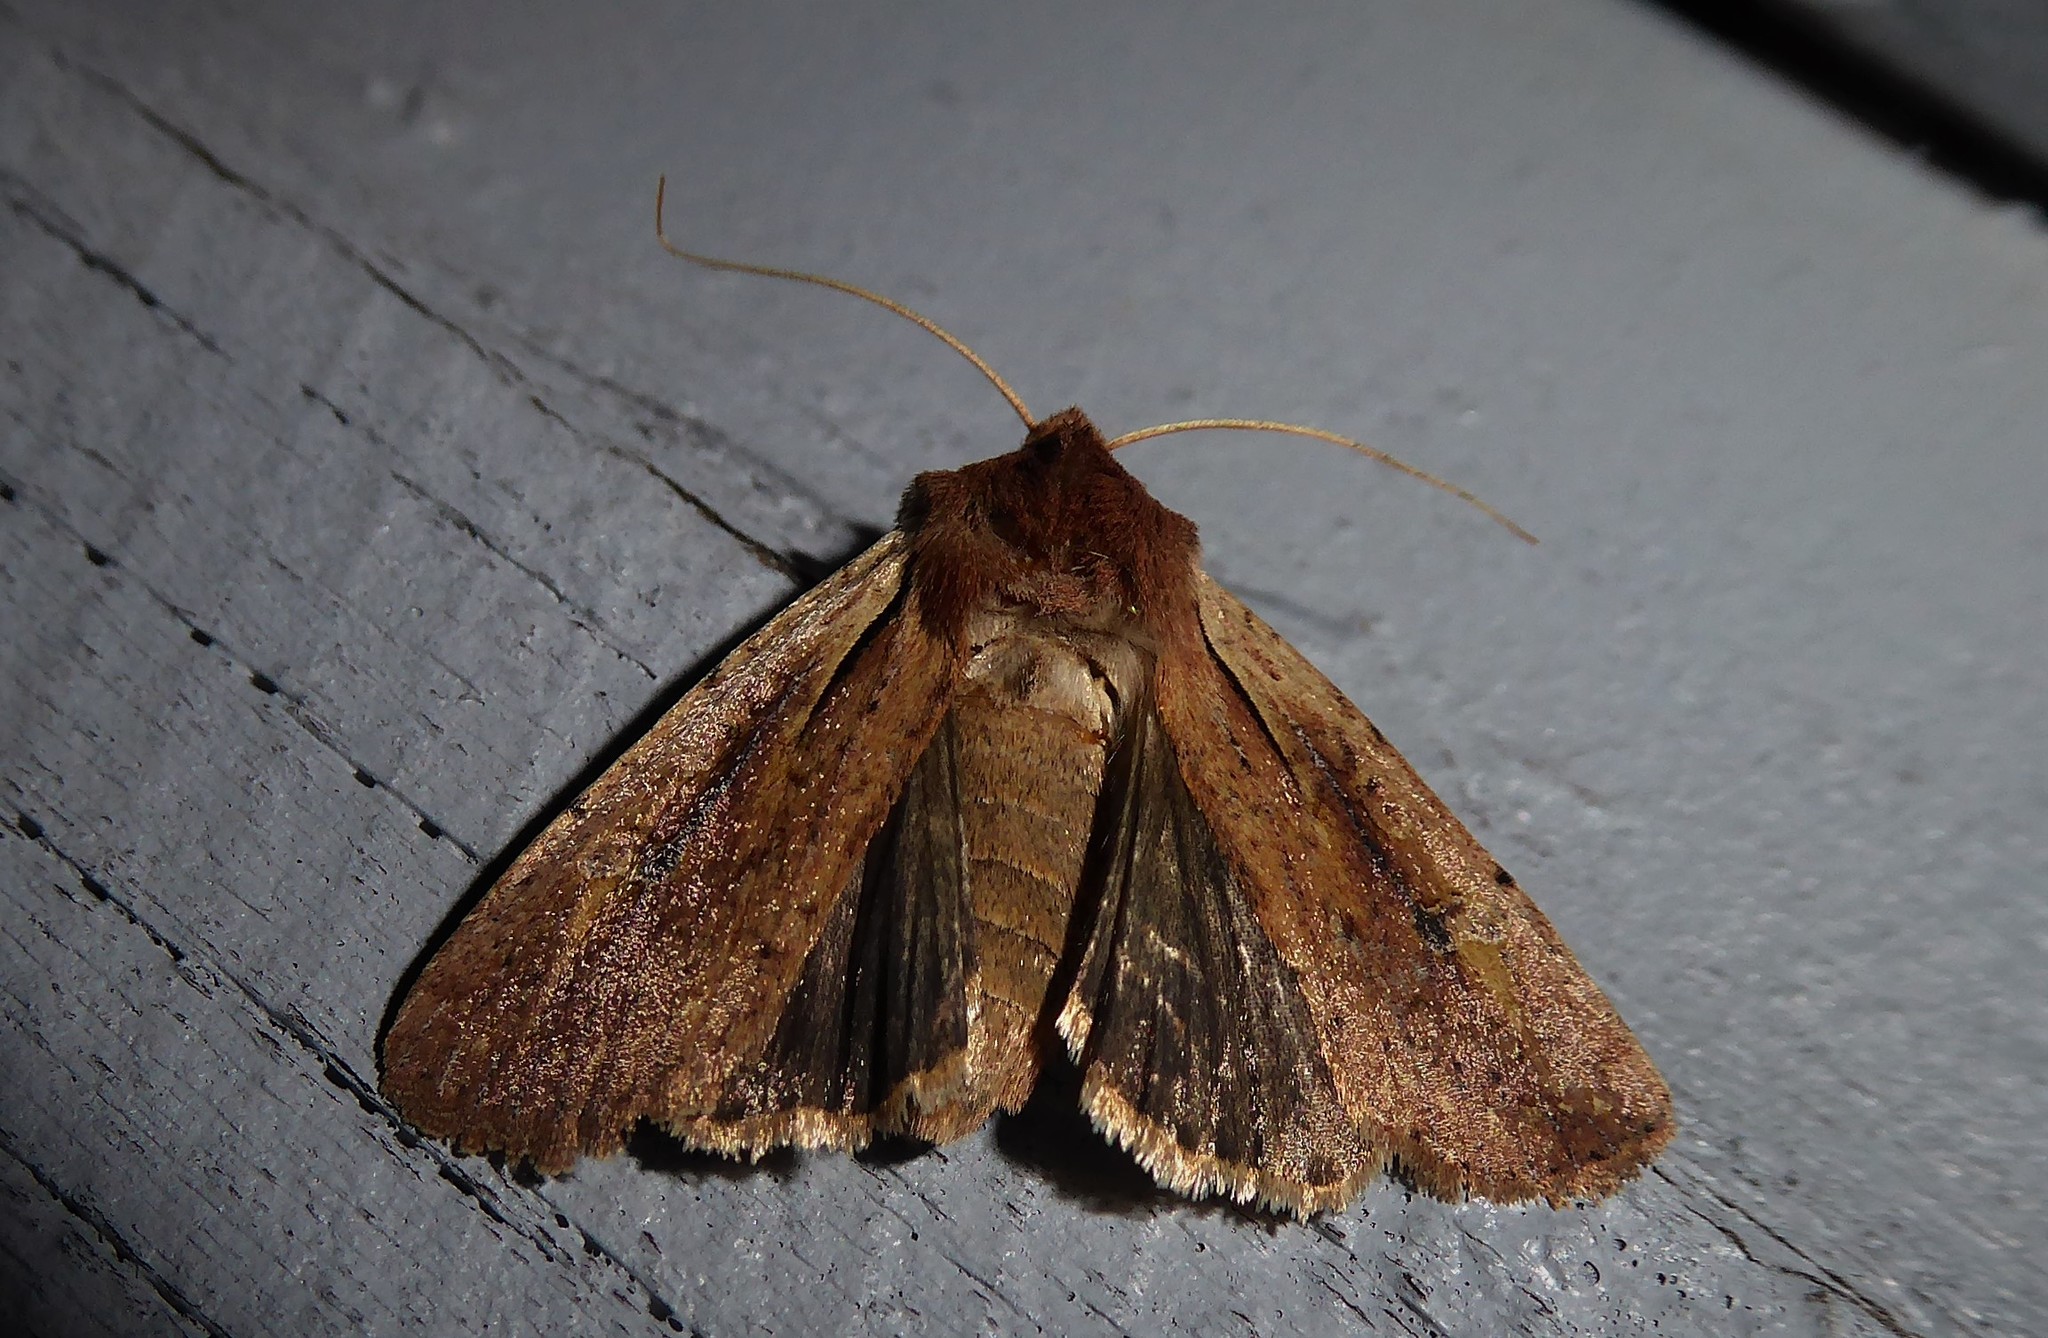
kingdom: Animalia
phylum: Arthropoda
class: Insecta
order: Lepidoptera
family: Noctuidae
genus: Ichneutica
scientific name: Ichneutica atristriga
